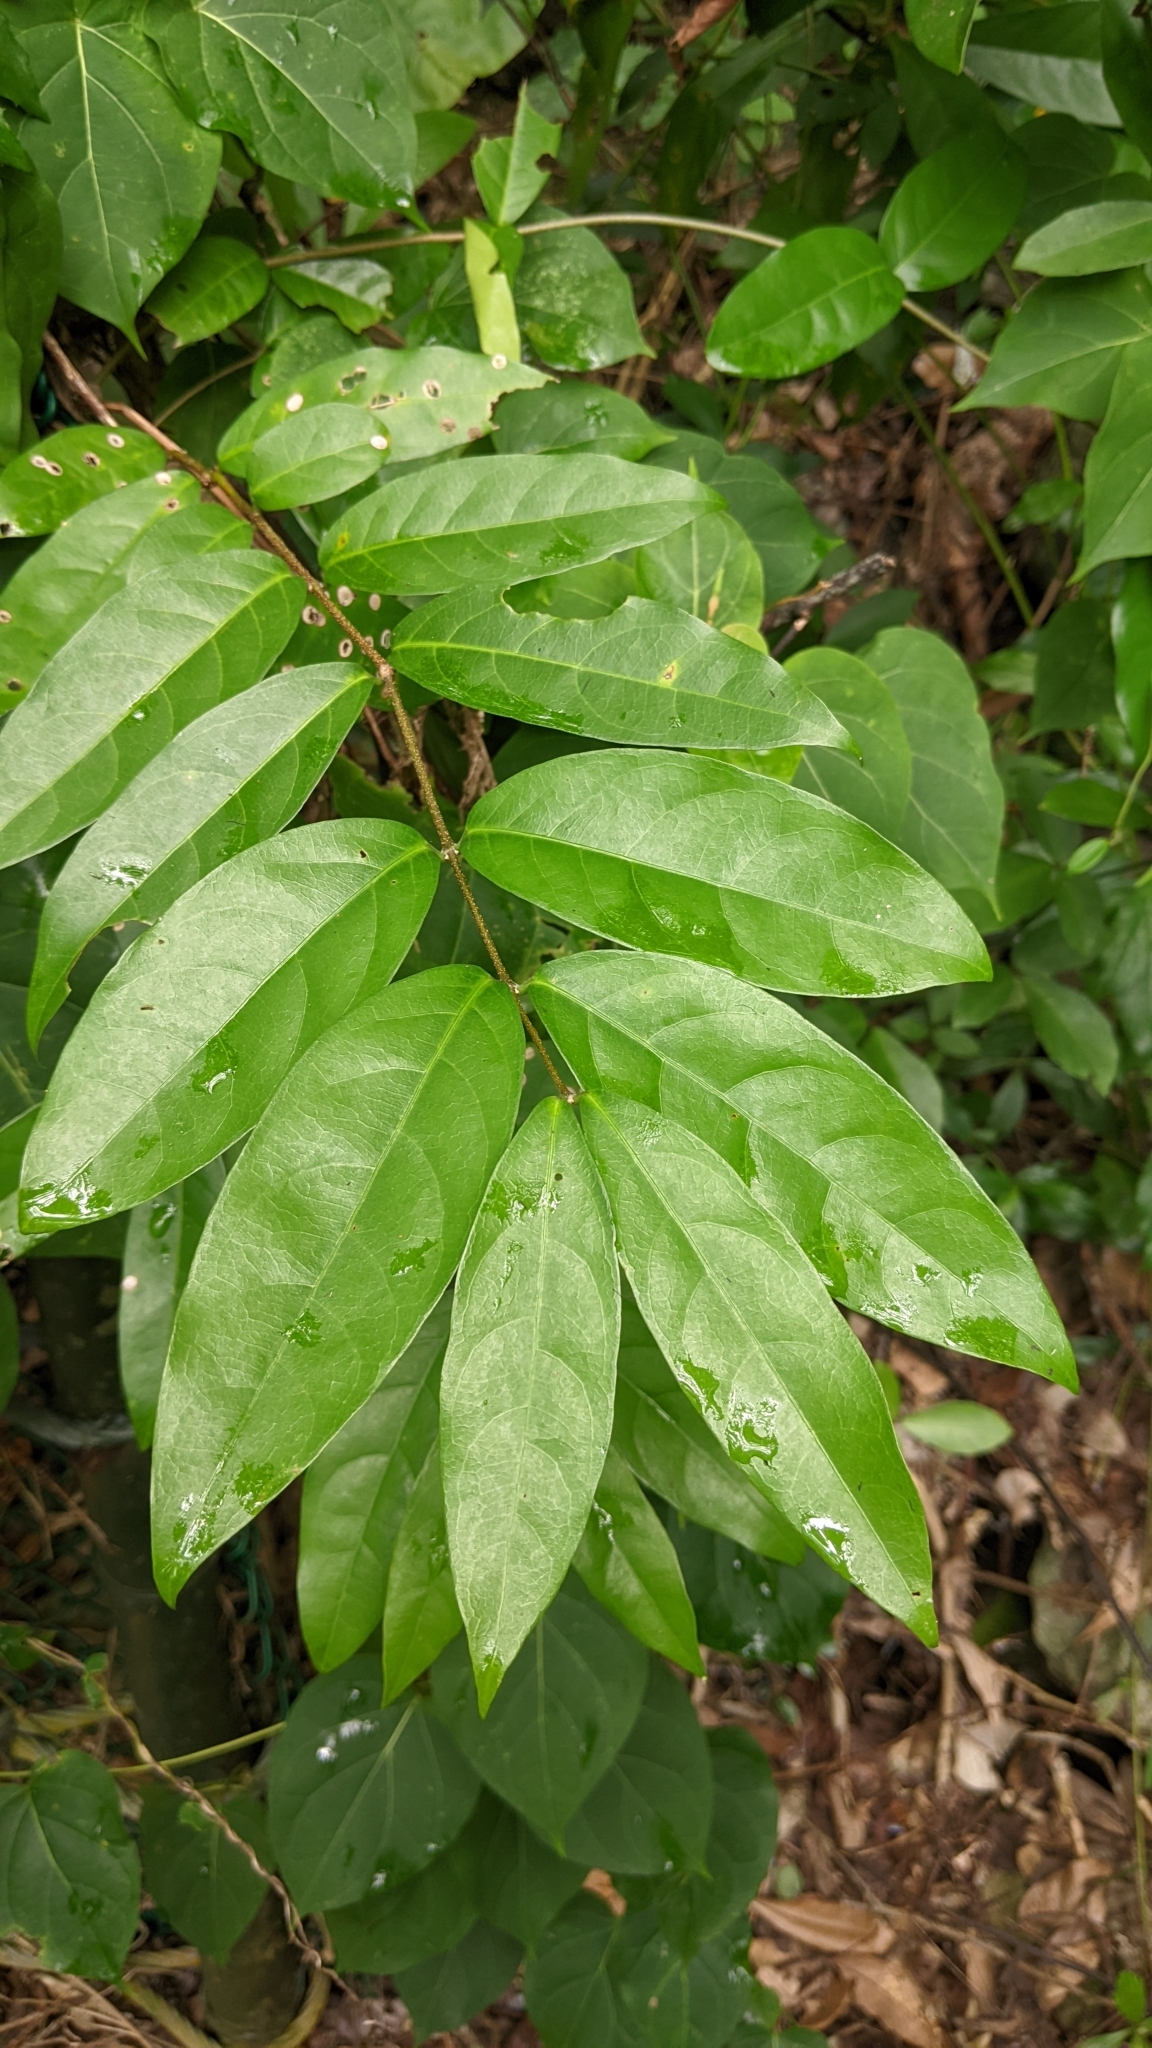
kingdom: Plantae
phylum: Tracheophyta
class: Magnoliopsida
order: Malpighiales
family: Malpighiaceae
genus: Hiptage
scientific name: Hiptage benghalensis
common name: Hiptage
